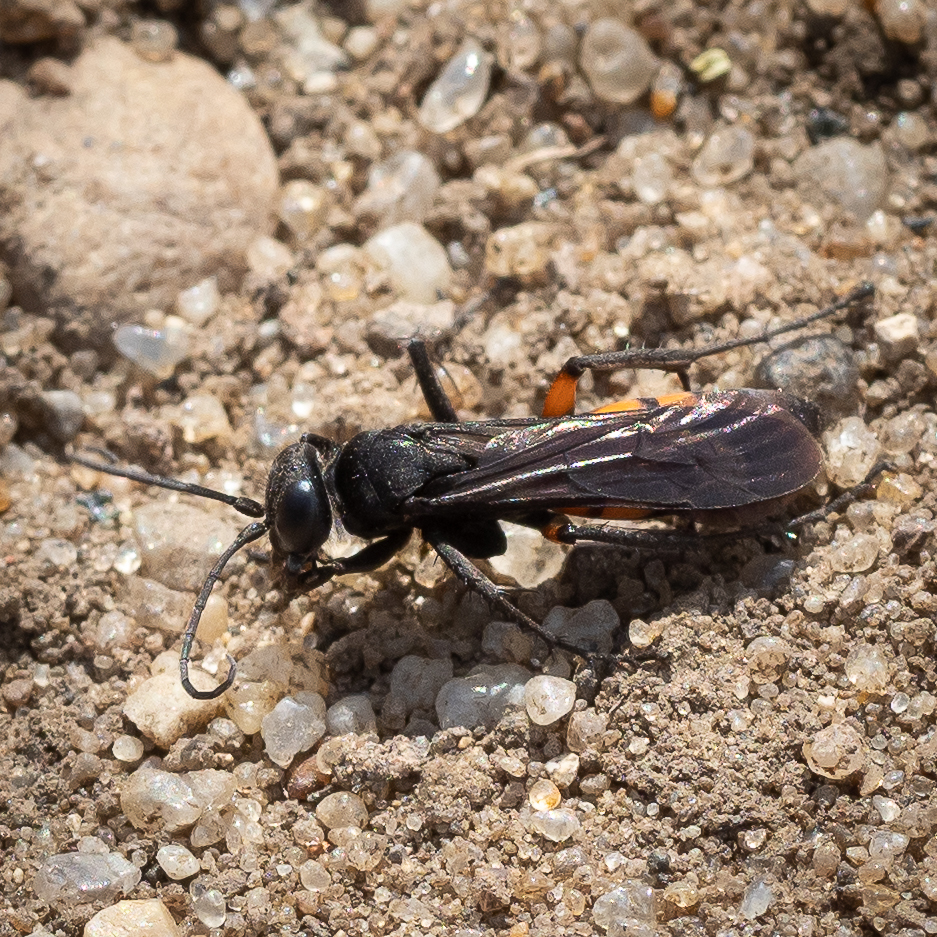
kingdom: Animalia
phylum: Arthropoda
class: Insecta
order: Hymenoptera
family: Pompilidae
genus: Anoplius
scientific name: Anoplius viaticus
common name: Black banded spider wasp
